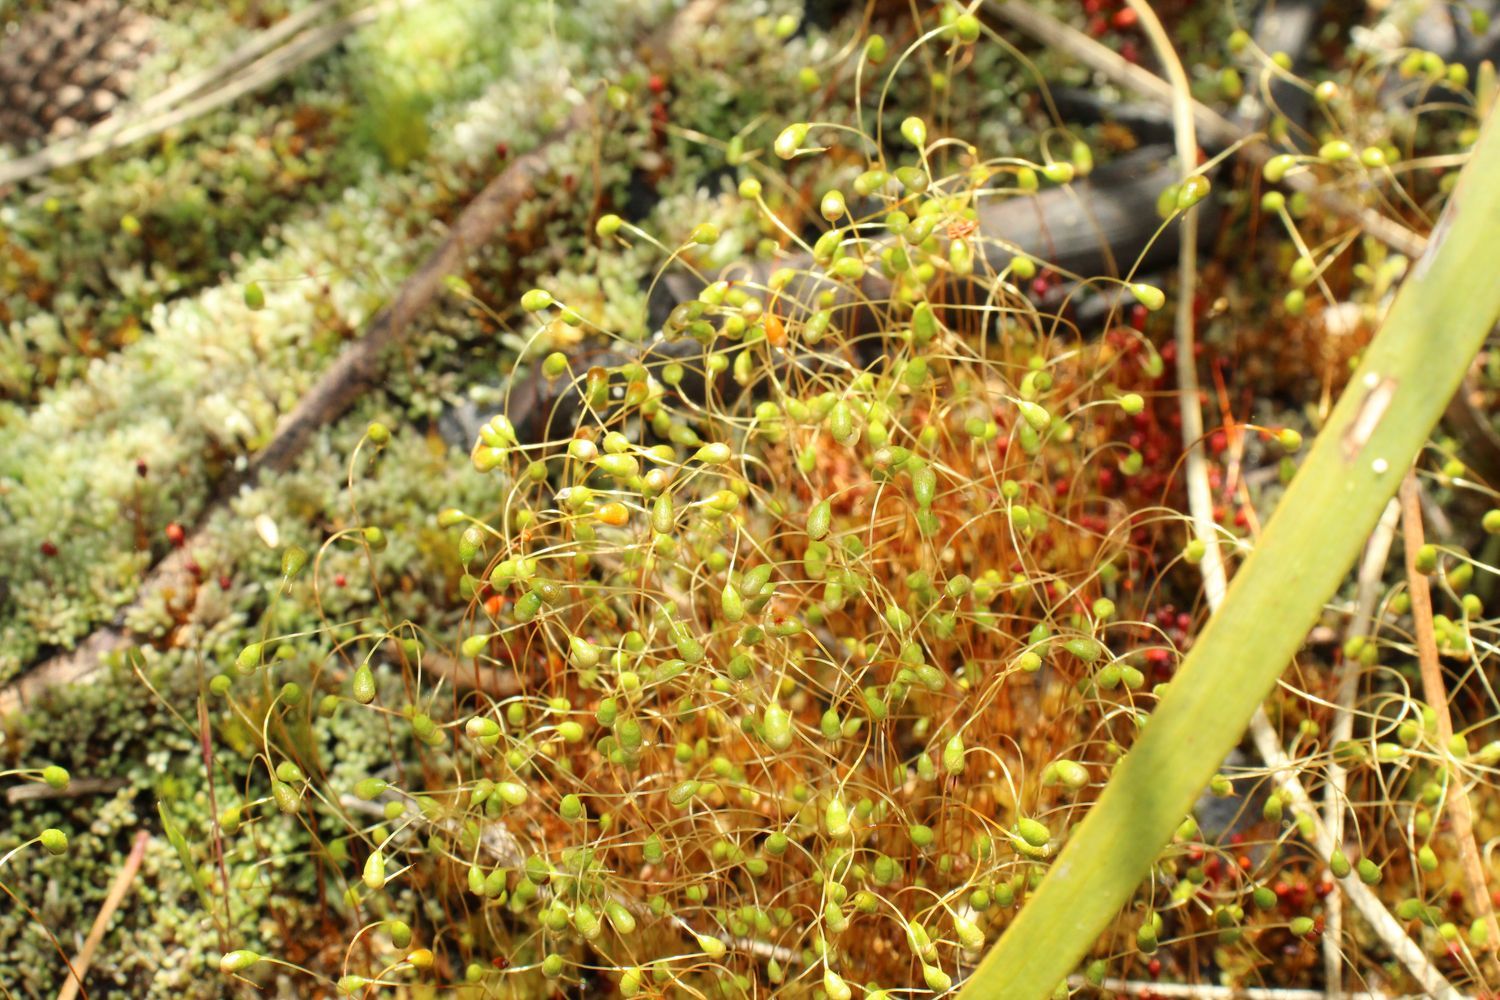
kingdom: Plantae
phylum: Bryophyta
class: Bryopsida
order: Funariales
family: Funariaceae
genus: Funaria
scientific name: Funaria hygrometrica
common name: Common cord moss
